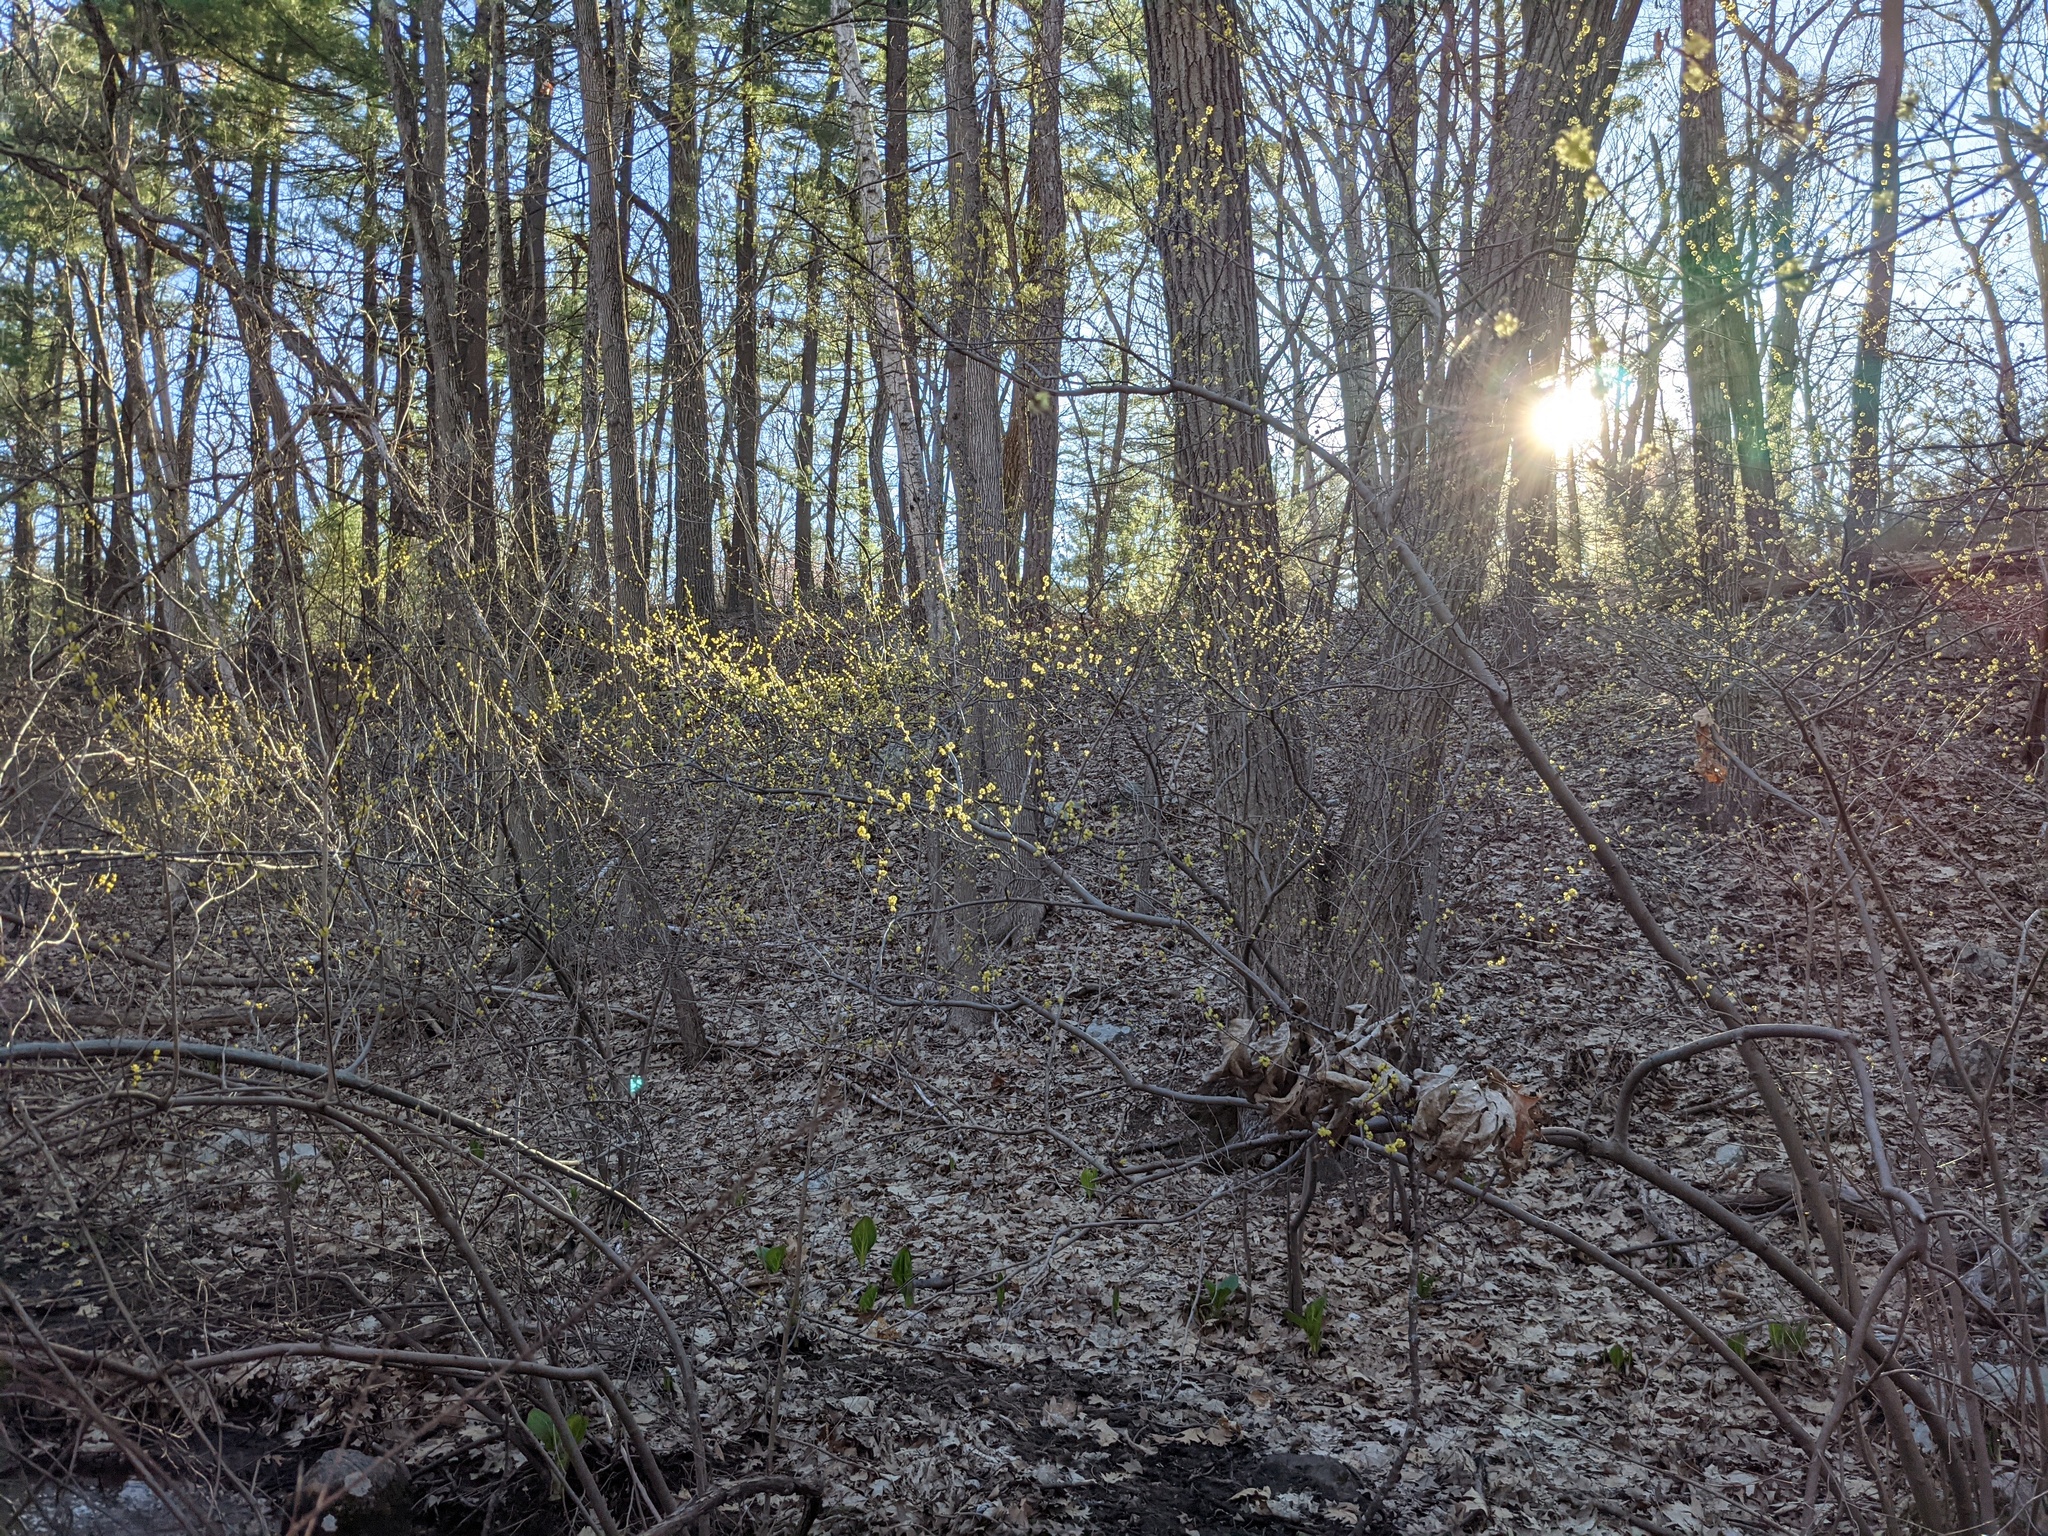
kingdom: Plantae
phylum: Tracheophyta
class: Magnoliopsida
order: Laurales
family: Lauraceae
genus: Lindera
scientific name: Lindera benzoin
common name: Spicebush
